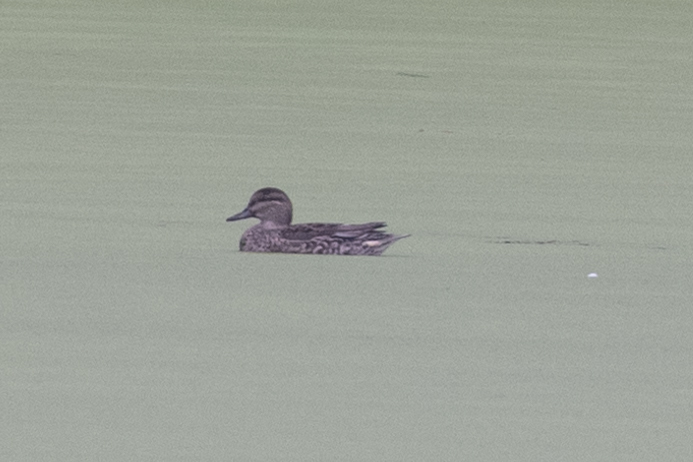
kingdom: Animalia
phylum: Chordata
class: Aves
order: Anseriformes
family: Anatidae
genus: Anas
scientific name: Anas crecca
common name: Eurasian teal
